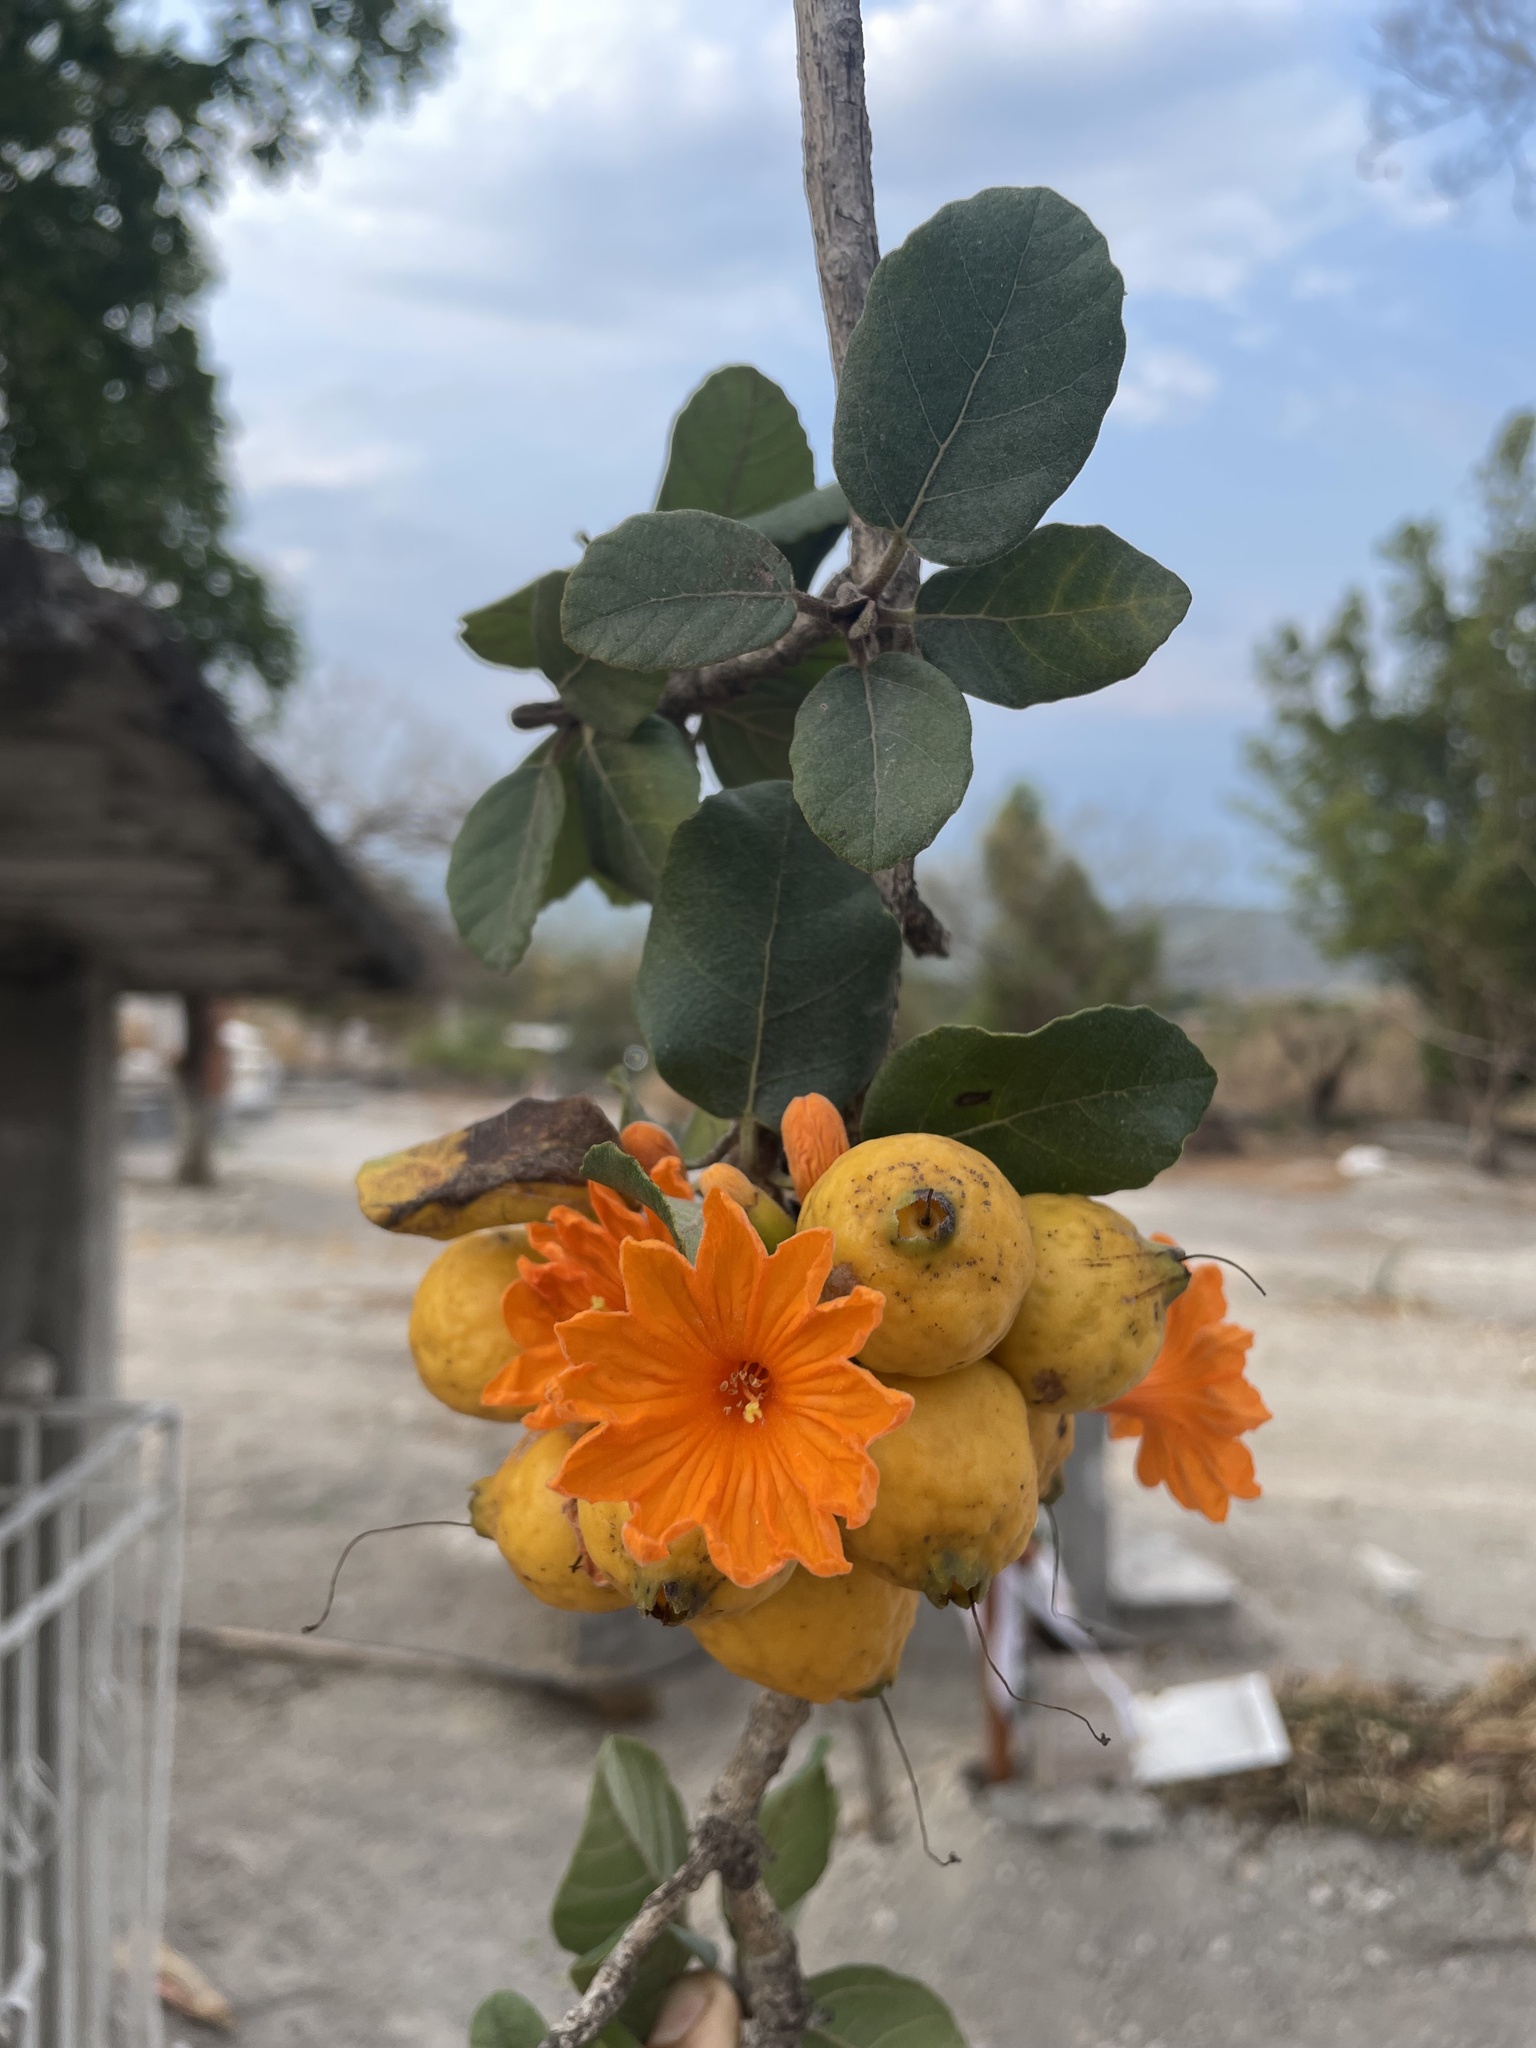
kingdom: Plantae
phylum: Tracheophyta
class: Magnoliopsida
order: Boraginales
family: Cordiaceae
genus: Cordia
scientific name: Cordia dodecandra
